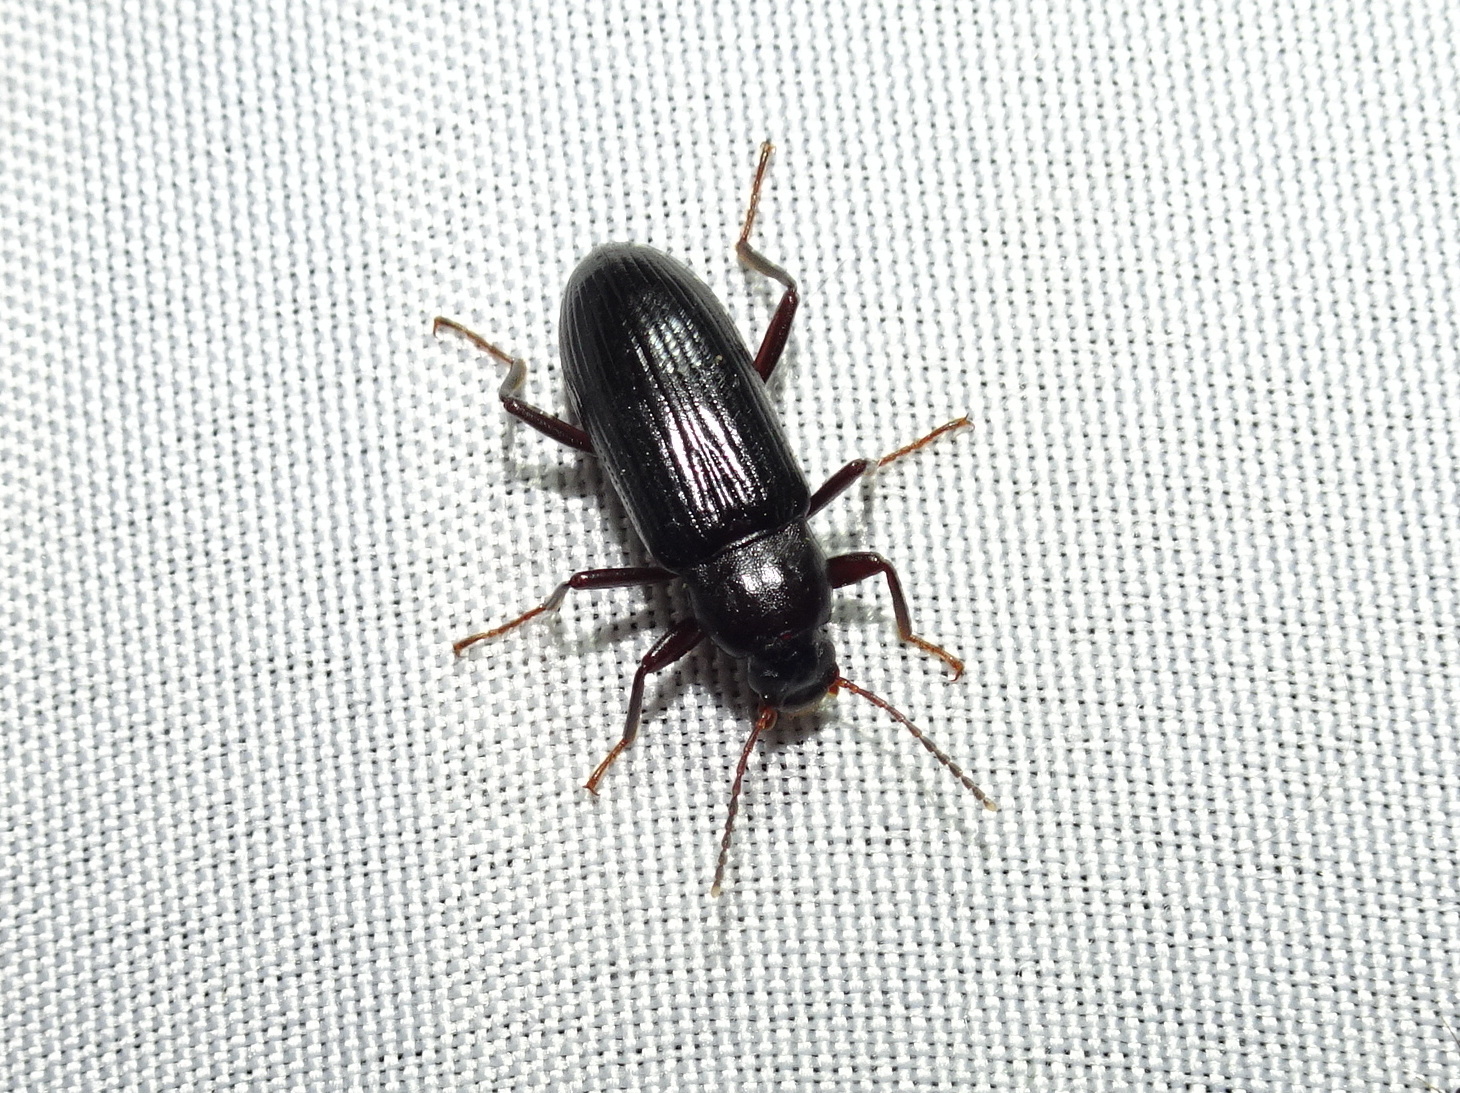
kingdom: Animalia
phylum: Arthropoda
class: Insecta
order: Coleoptera
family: Tenebrionidae
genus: Strongylium
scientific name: Strongylium terminatum
